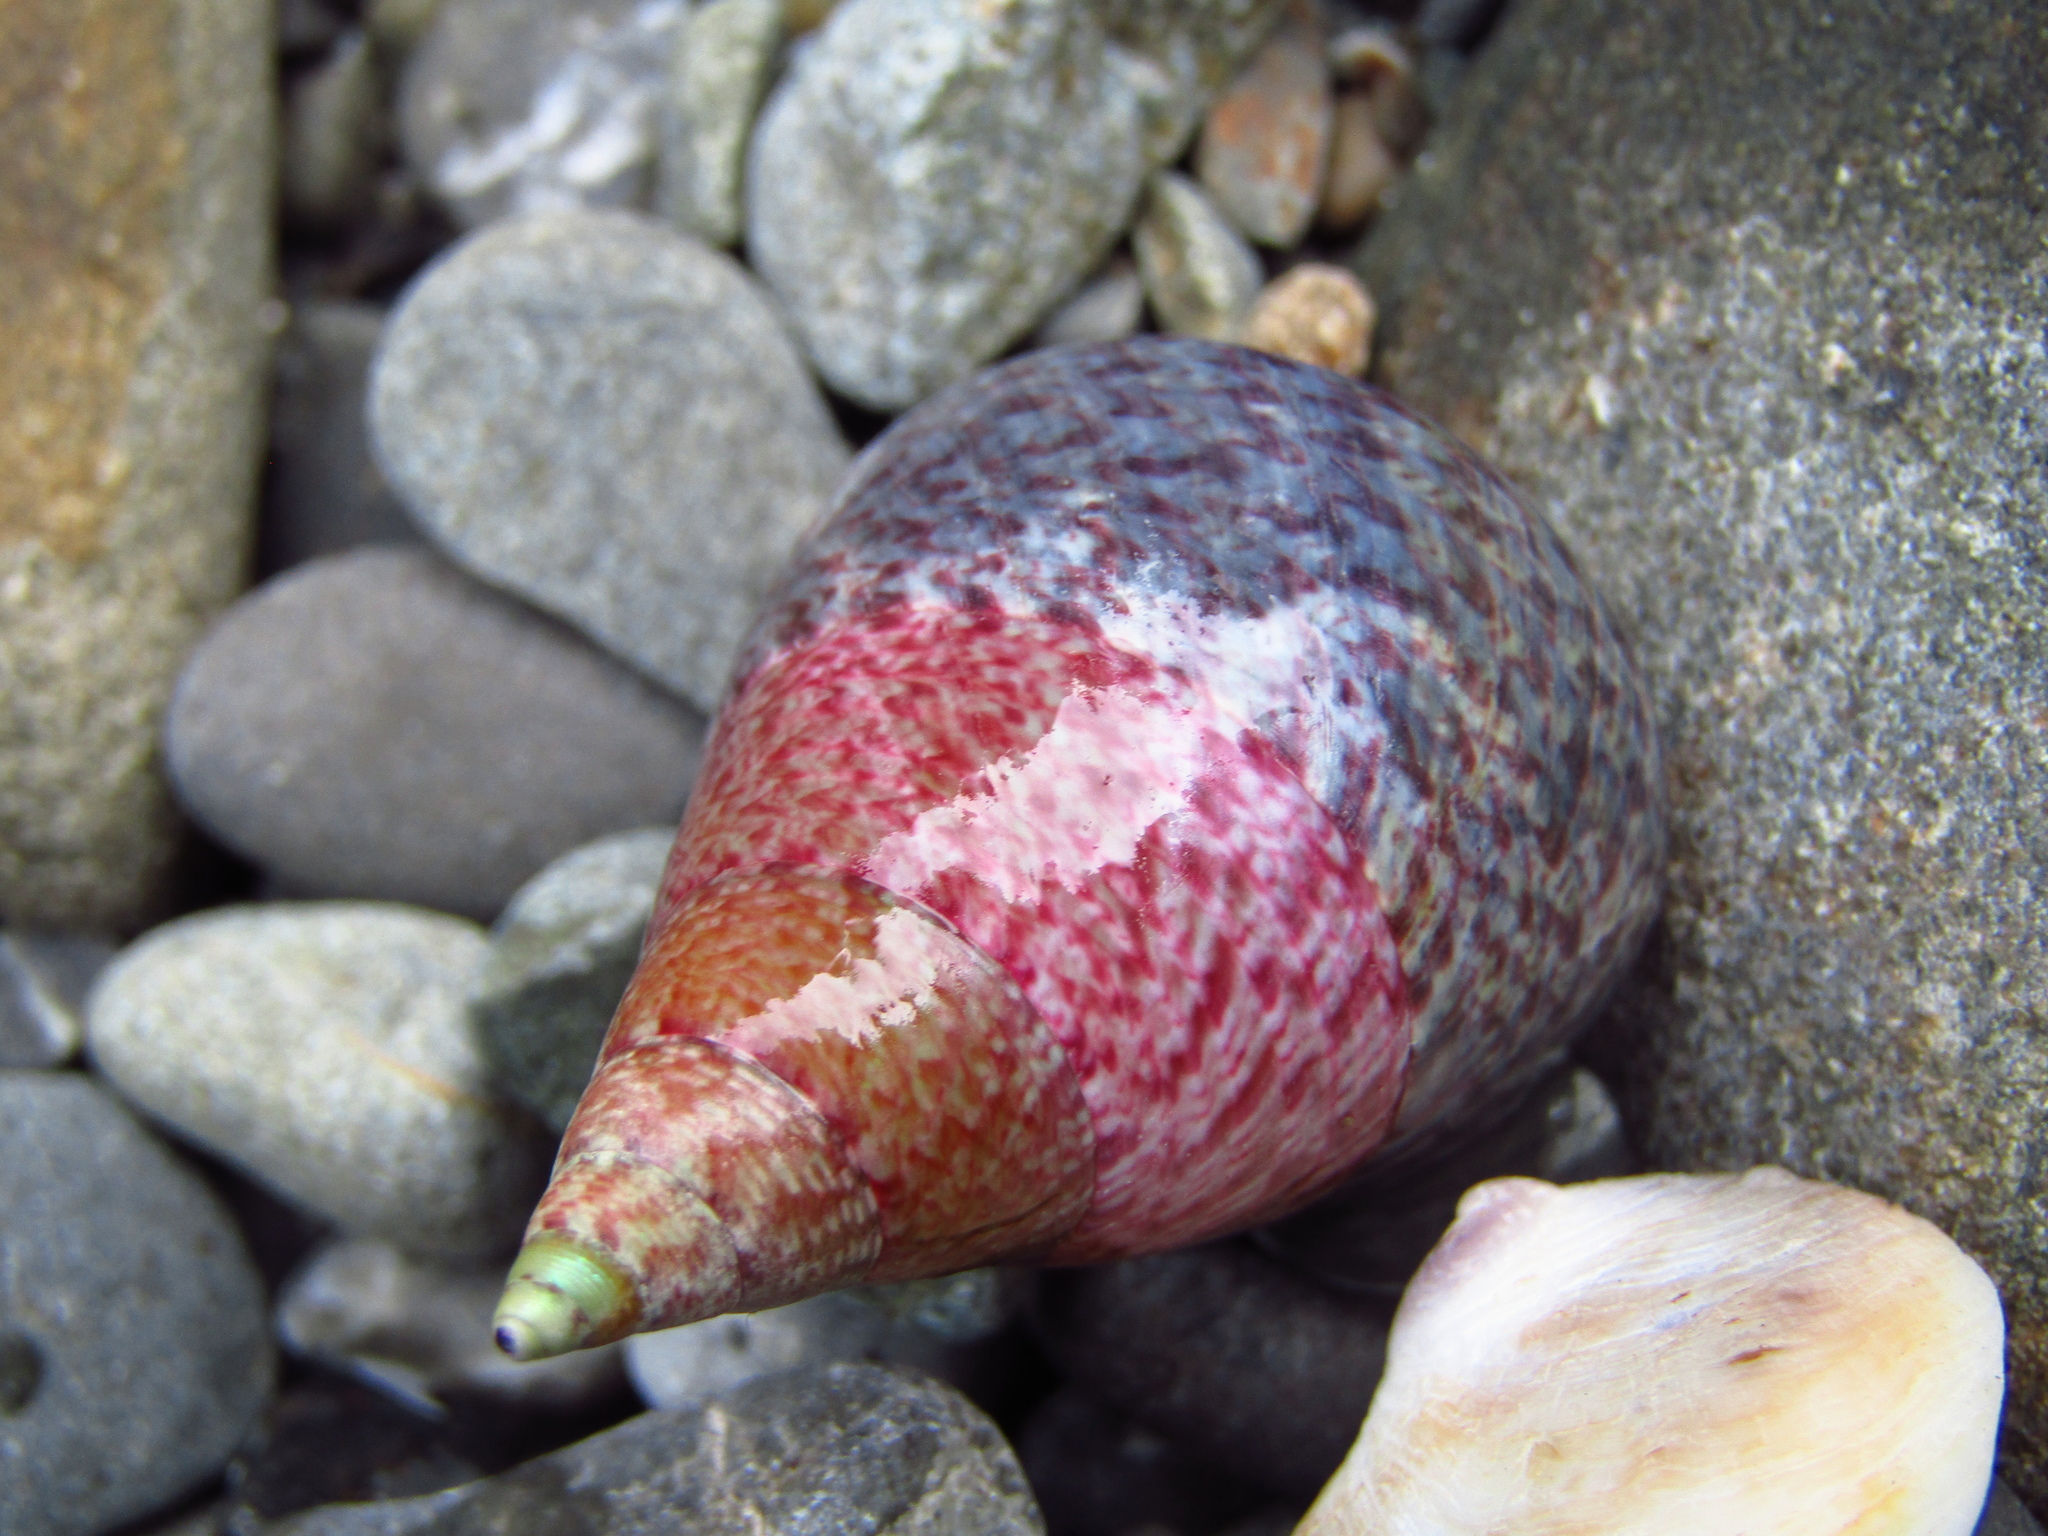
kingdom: Animalia
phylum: Mollusca
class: Gastropoda
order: Trochida
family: Trochidae
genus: Cantharidus
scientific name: Cantharidus opalus
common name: Opal jewel topsnail
